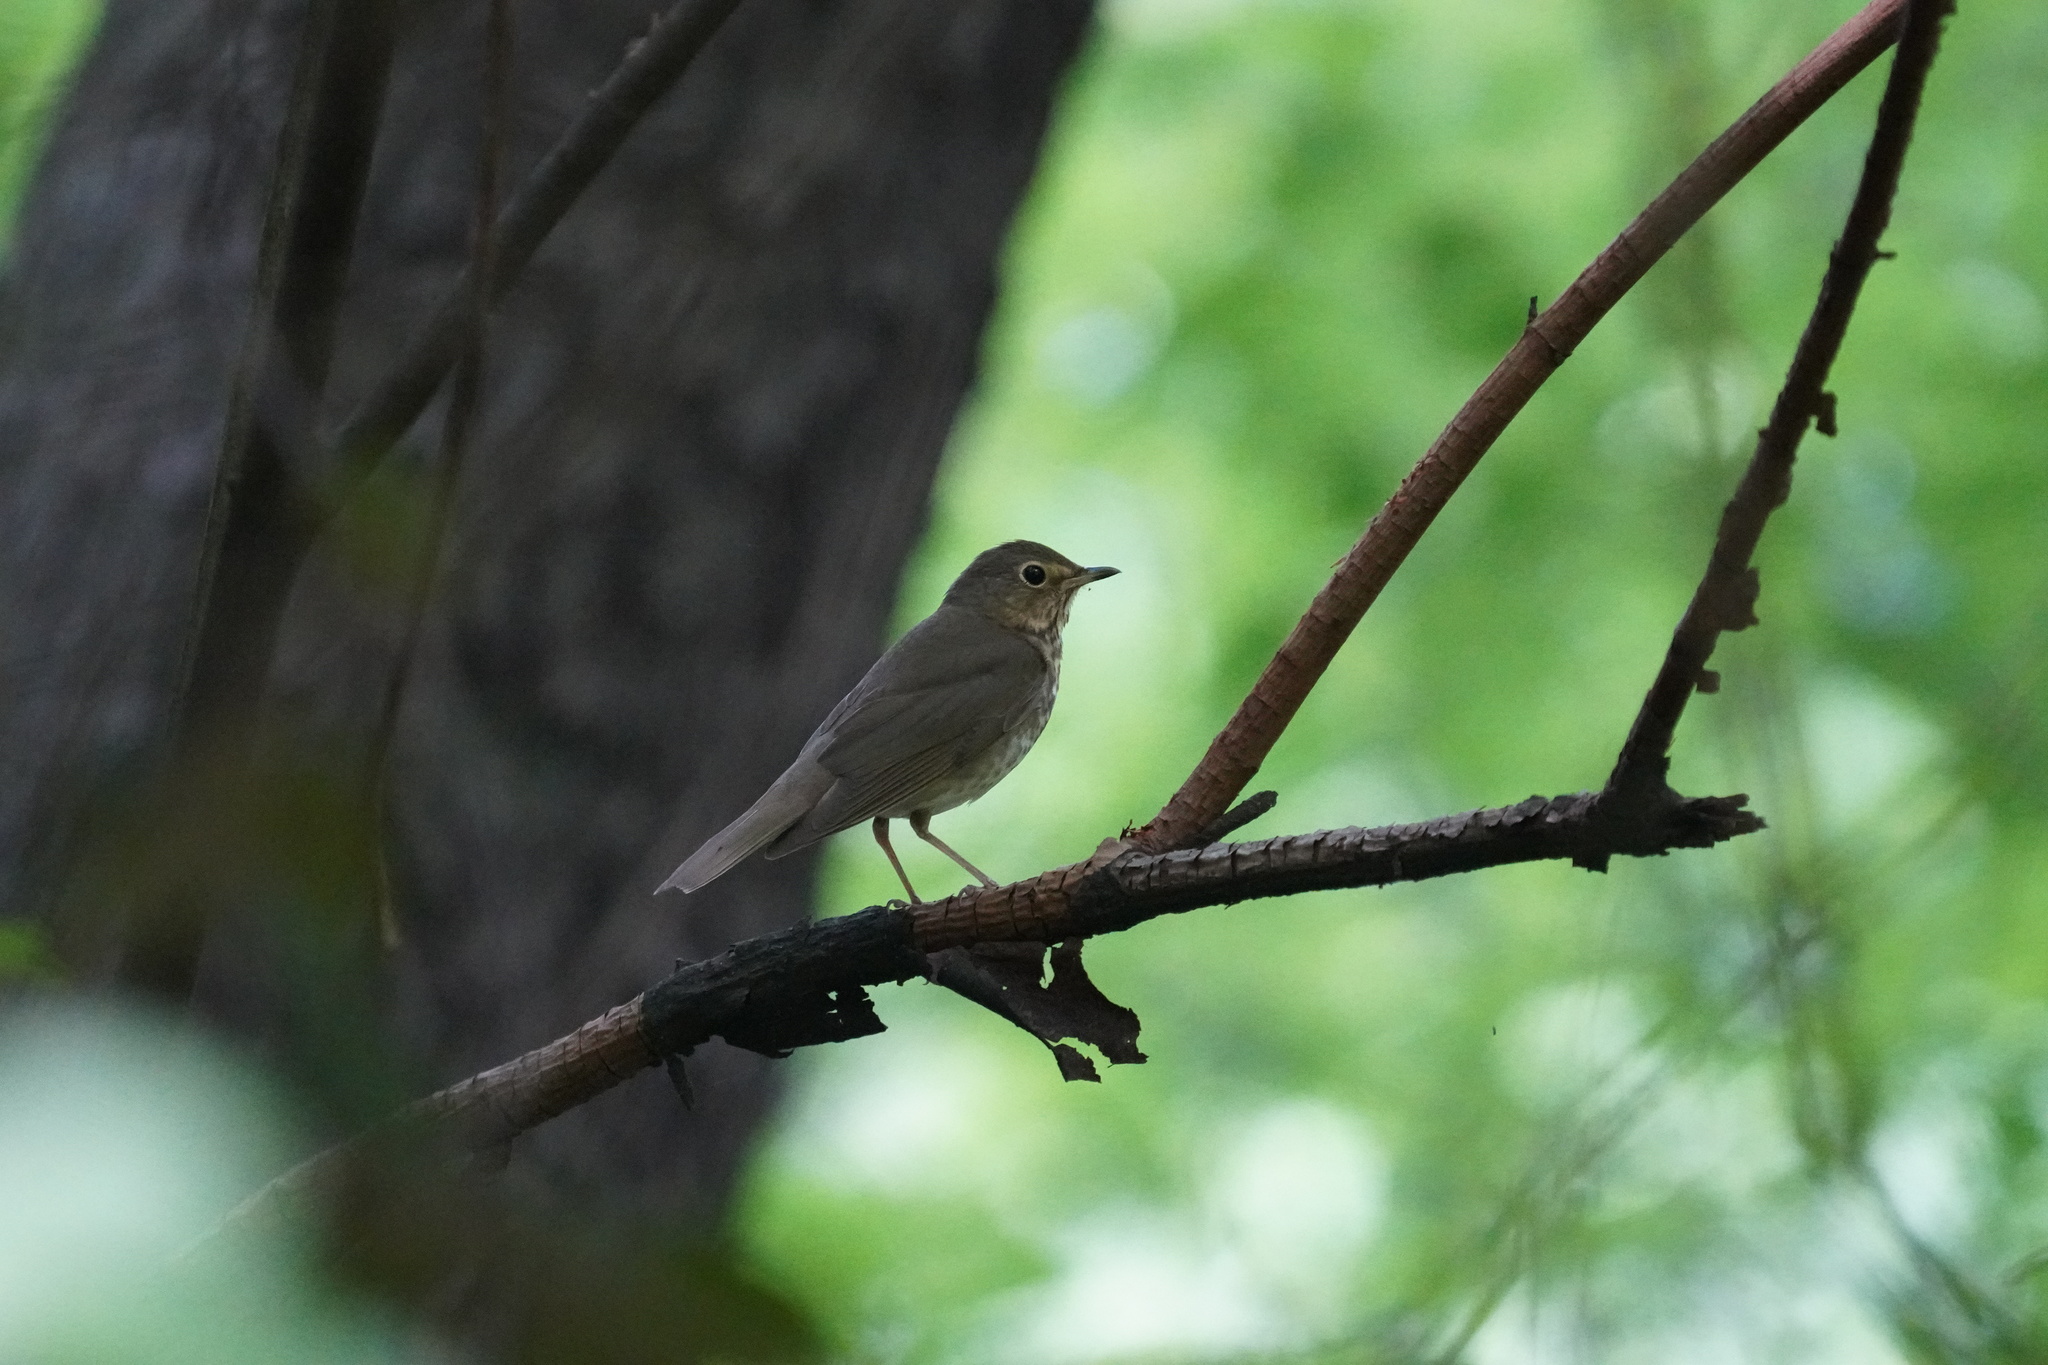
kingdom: Animalia
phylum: Chordata
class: Aves
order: Passeriformes
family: Turdidae
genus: Catharus
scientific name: Catharus ustulatus
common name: Swainson's thrush
